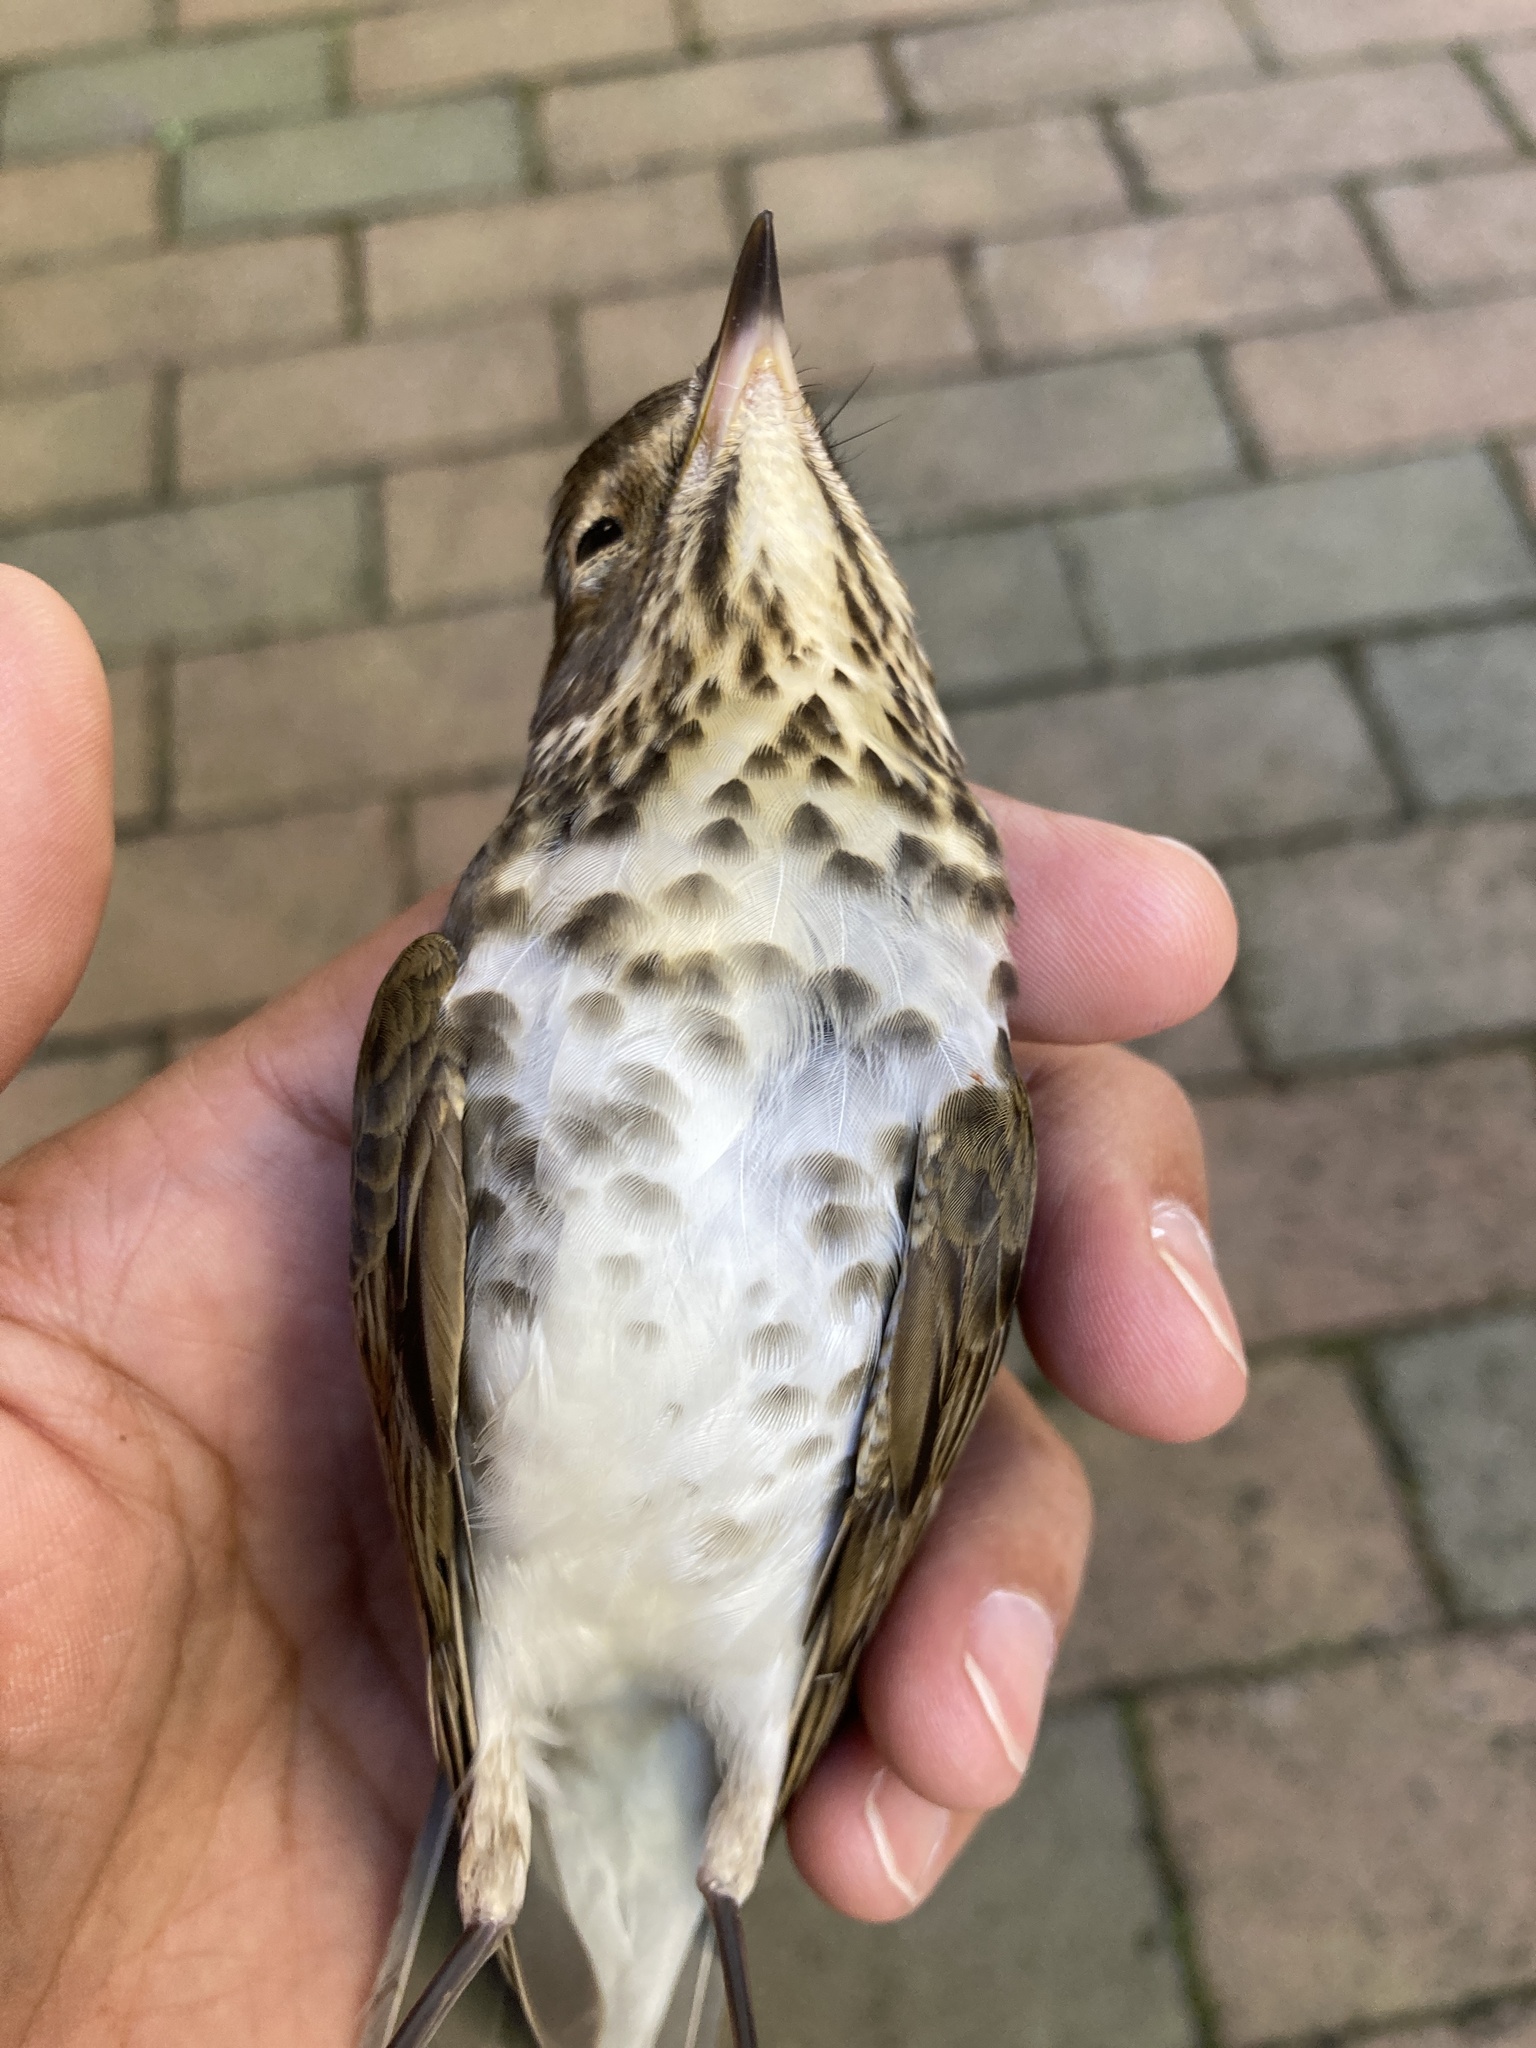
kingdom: Animalia
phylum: Chordata
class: Aves
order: Passeriformes
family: Turdidae
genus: Catharus
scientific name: Catharus ustulatus
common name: Swainson's thrush
